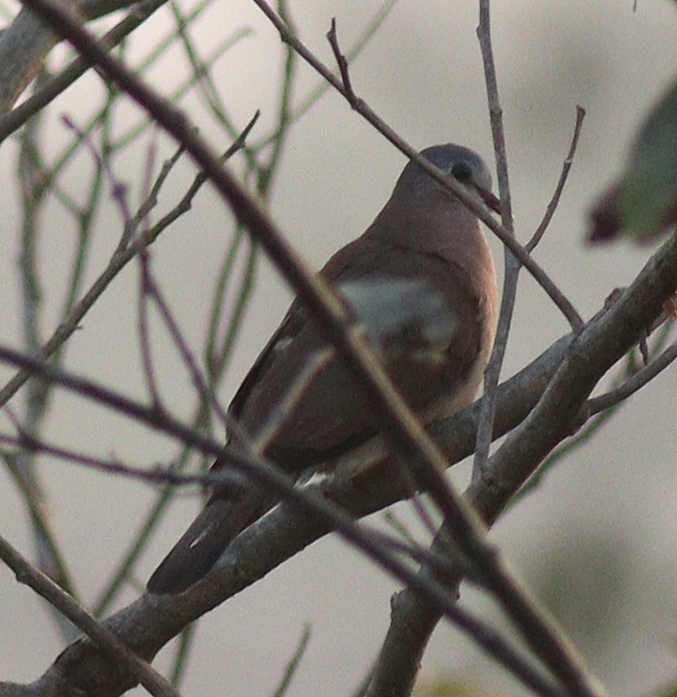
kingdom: Animalia
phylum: Chordata
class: Aves
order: Columbiformes
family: Columbidae
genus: Turtur
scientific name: Turtur afer
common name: Blue-spotted wood dove
